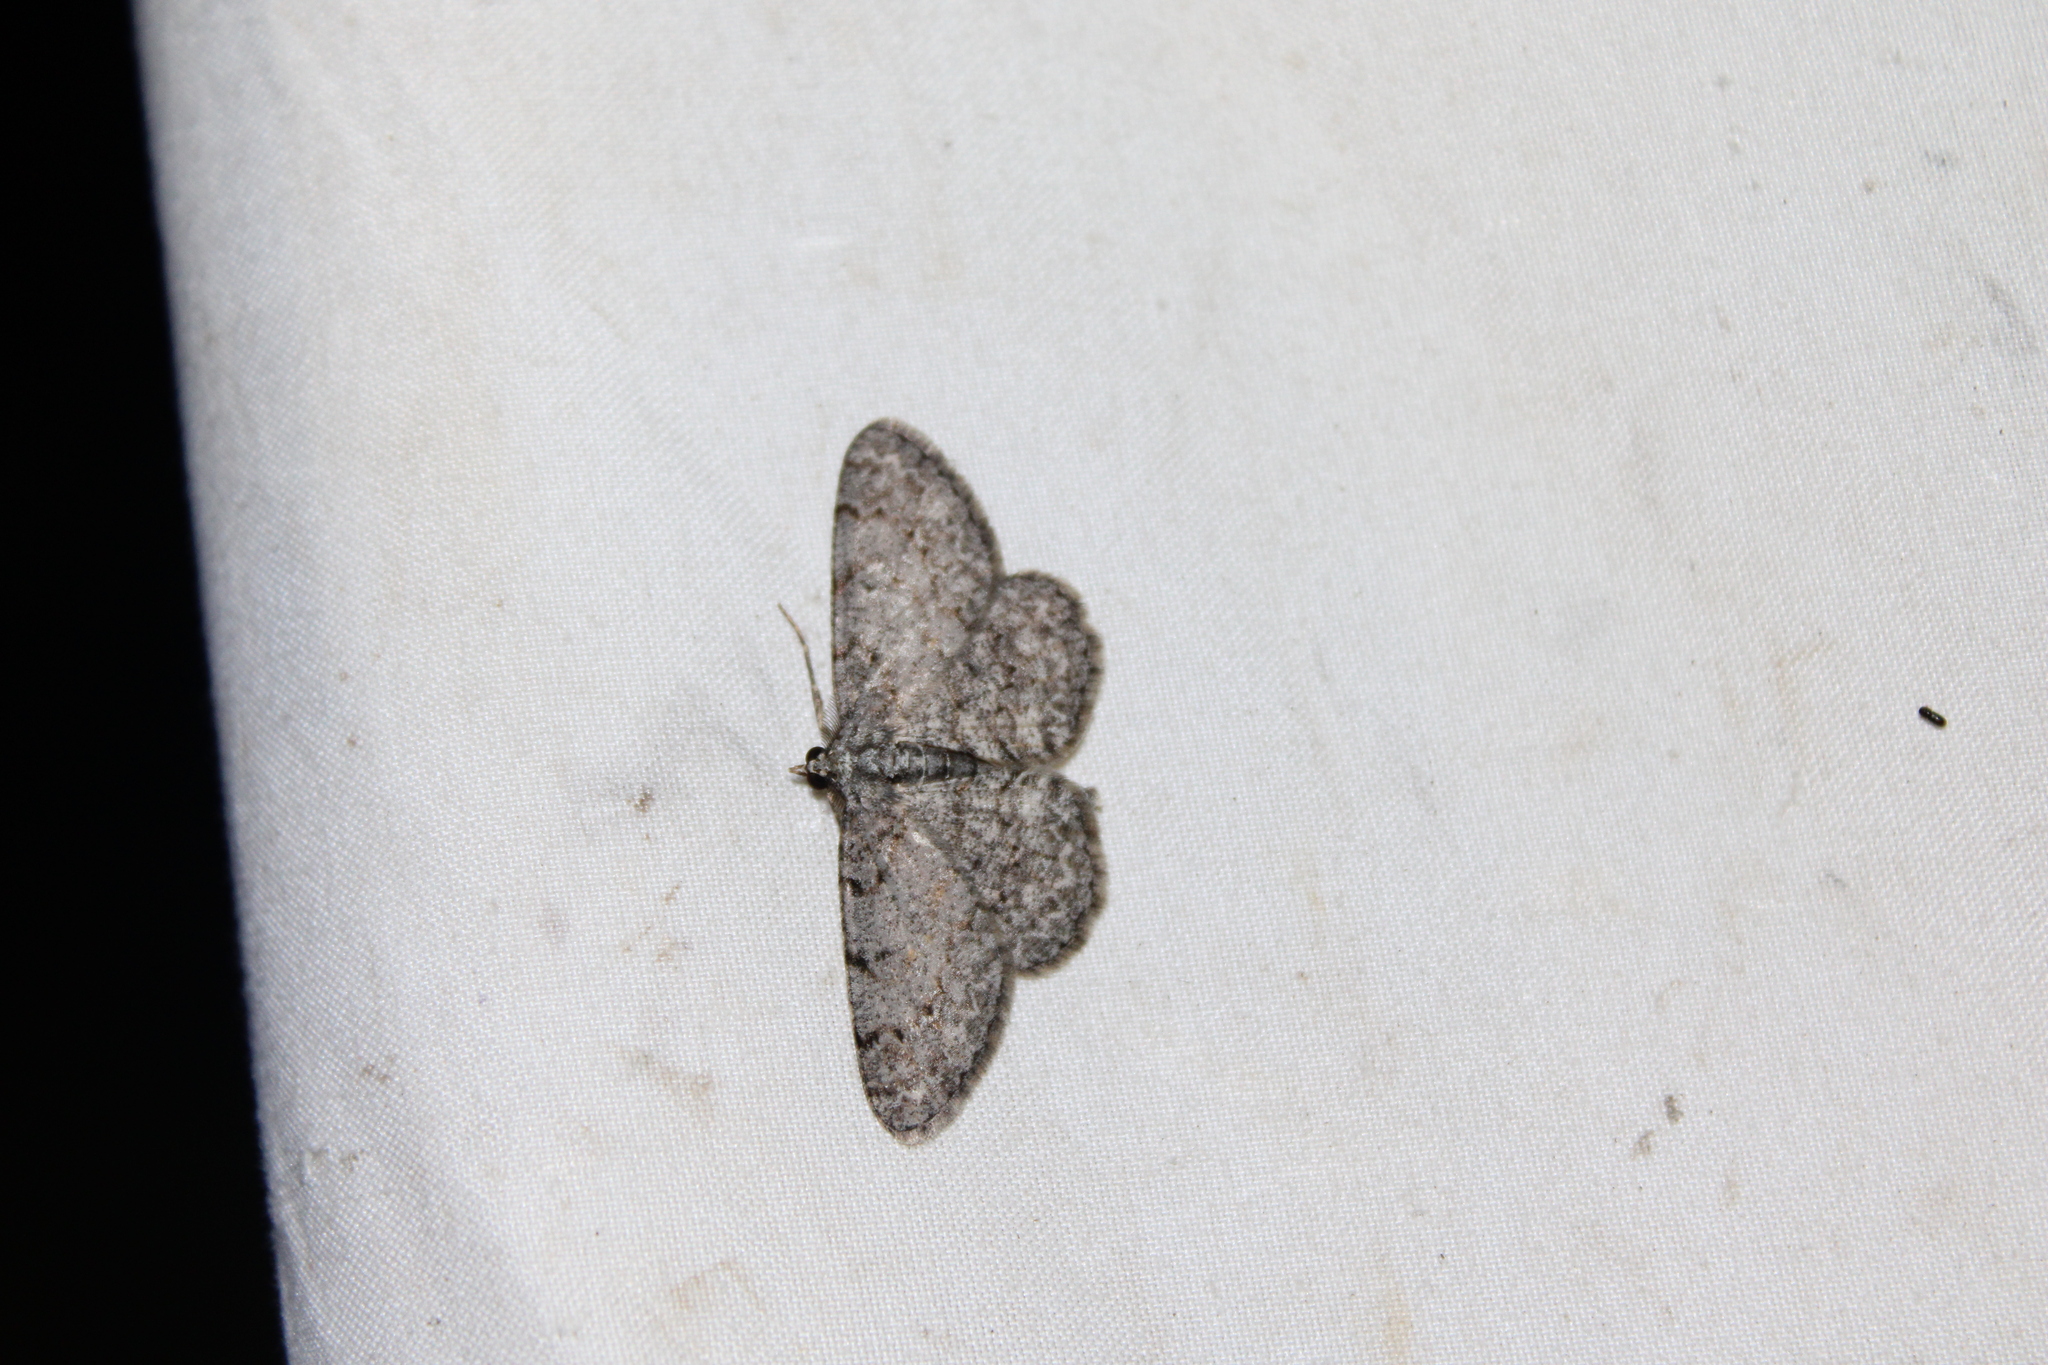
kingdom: Animalia
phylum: Arthropoda
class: Insecta
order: Lepidoptera
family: Geometridae
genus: Protoboarmia
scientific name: Protoboarmia porcelaria
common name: Porcelain gray
